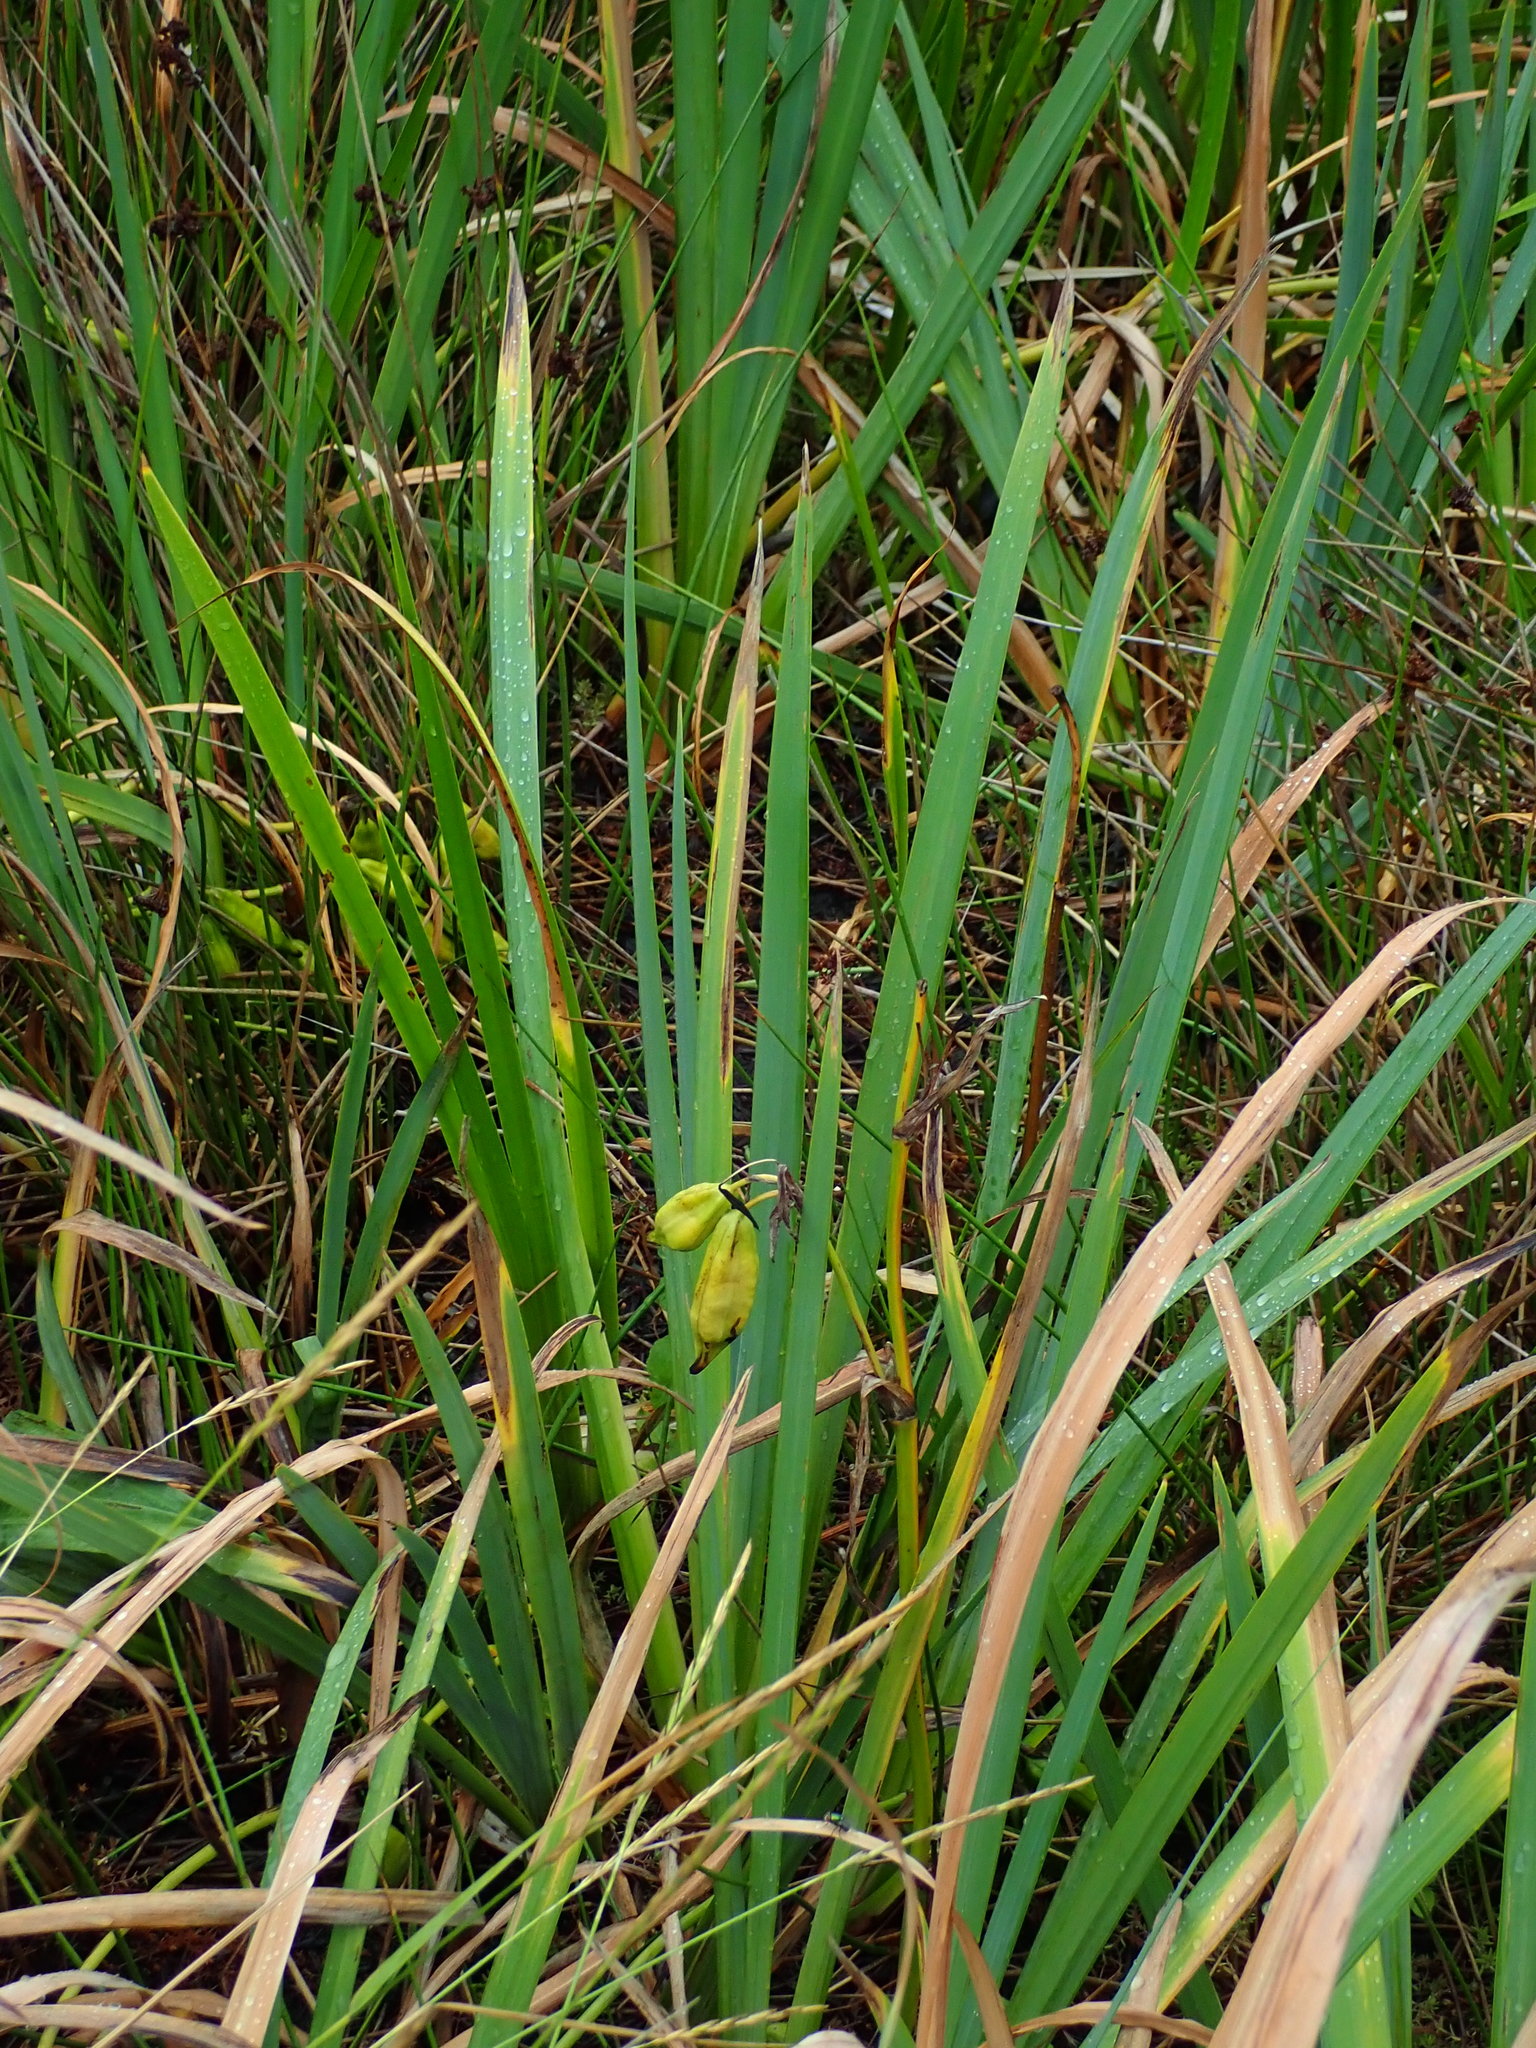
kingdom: Plantae
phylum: Tracheophyta
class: Liliopsida
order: Asparagales
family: Iridaceae
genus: Iris
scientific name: Iris pseudacorus
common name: Yellow flag
